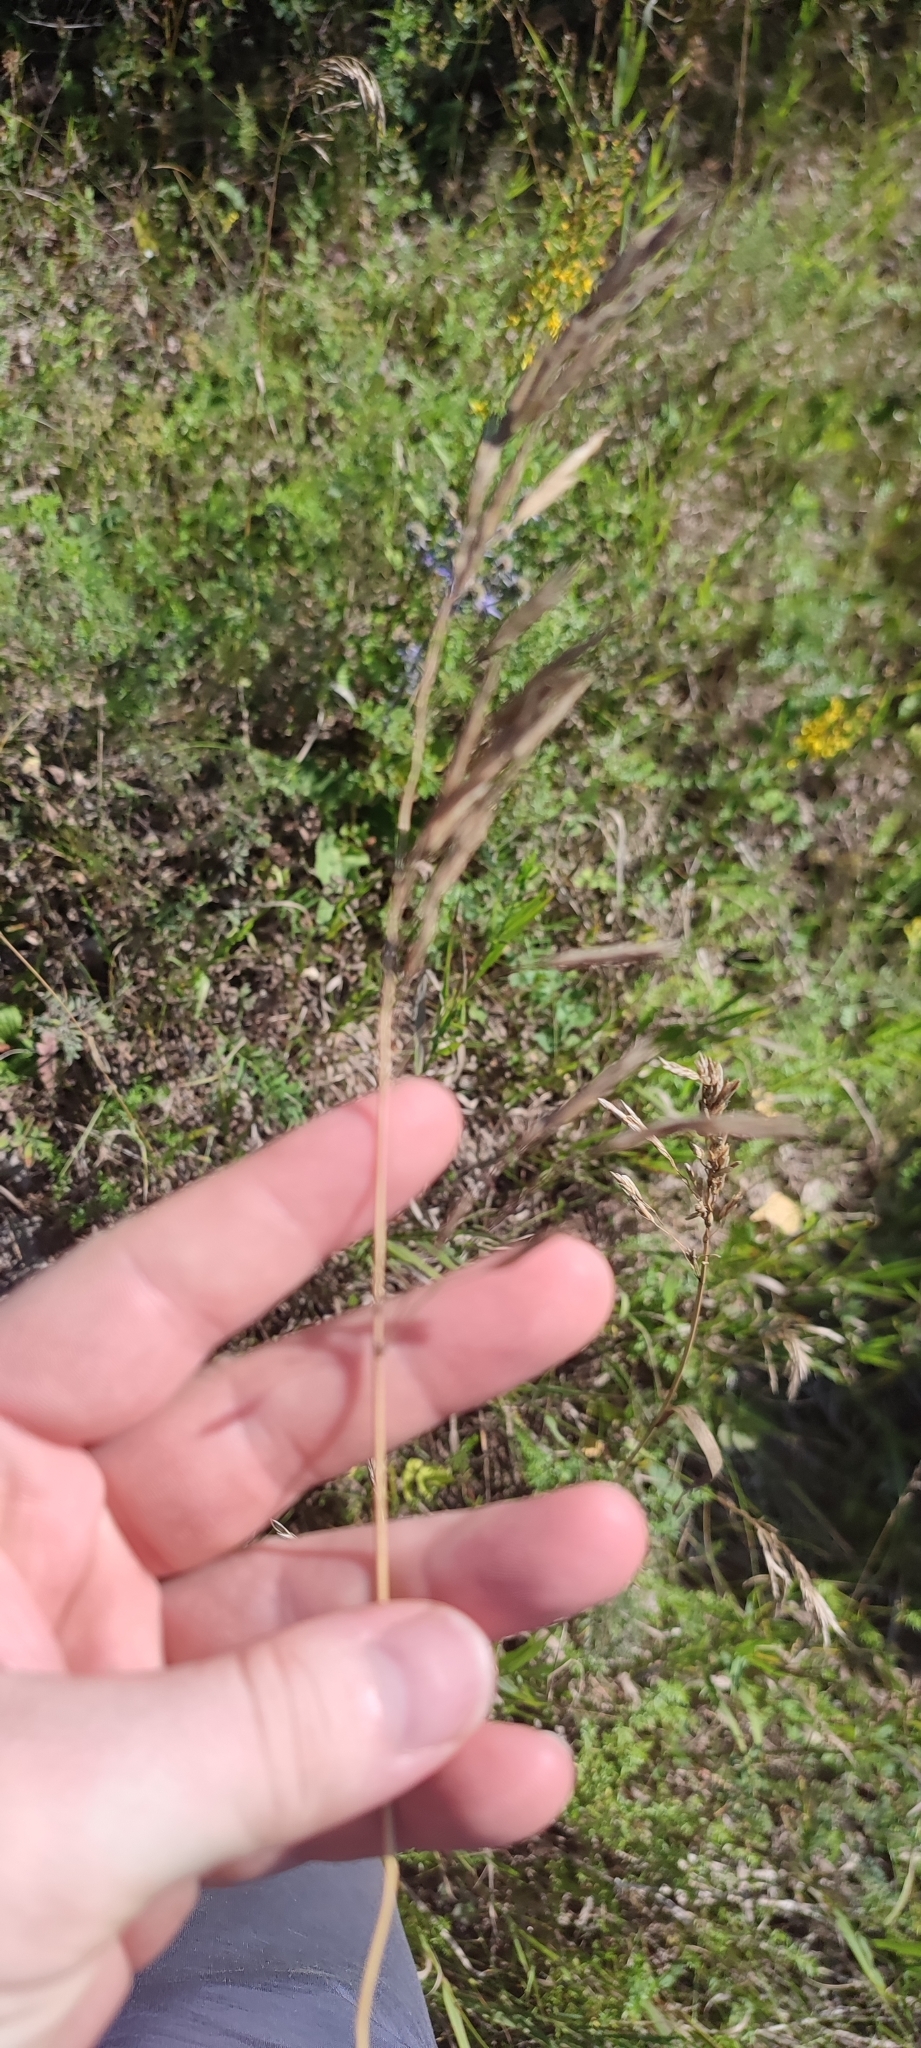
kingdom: Plantae
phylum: Tracheophyta
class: Liliopsida
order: Poales
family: Poaceae
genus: Bromus
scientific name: Bromus inermis
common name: Smooth brome
